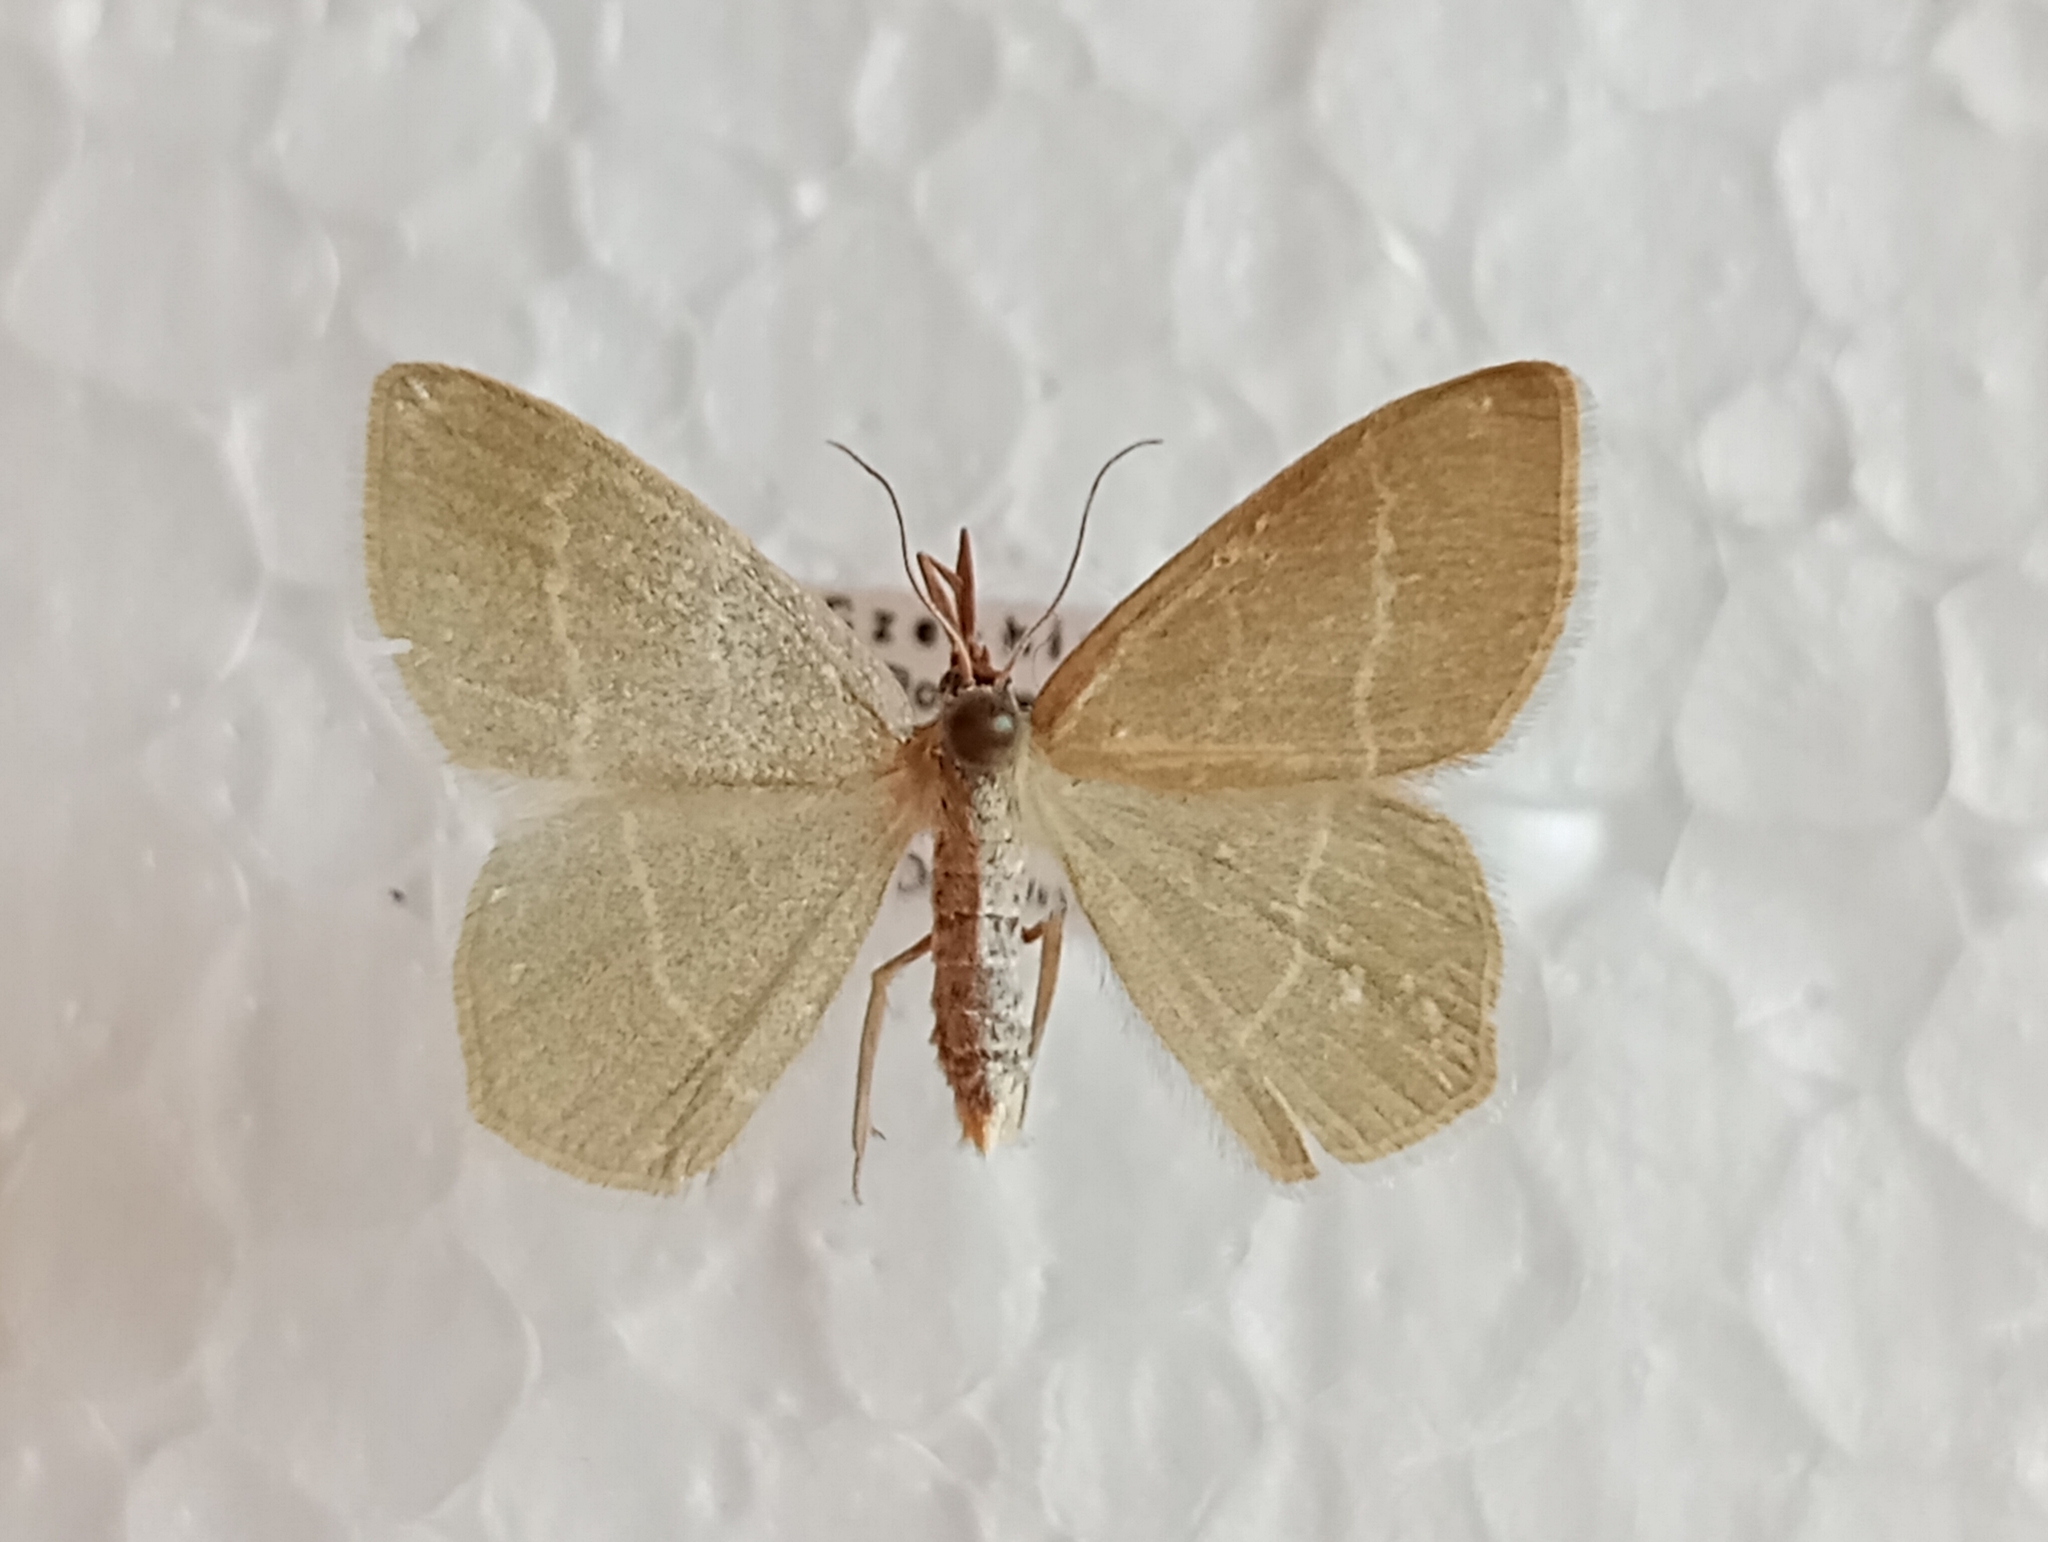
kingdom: Animalia
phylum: Arthropoda
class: Insecta
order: Lepidoptera
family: Geometridae
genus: Chlorissa
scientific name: Chlorissa cloraria
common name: Southern grass emerald
